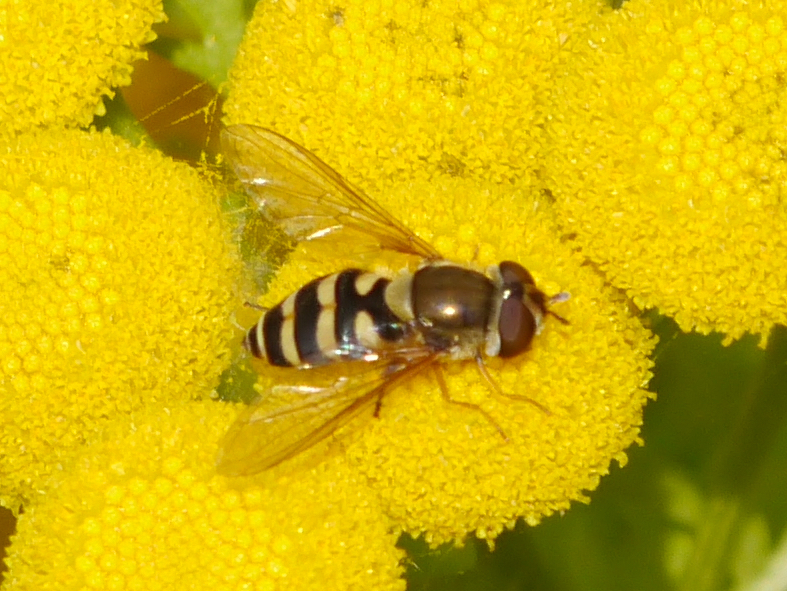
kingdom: Animalia
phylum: Arthropoda
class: Insecta
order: Diptera
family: Syrphidae
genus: Syrphus
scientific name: Syrphus
